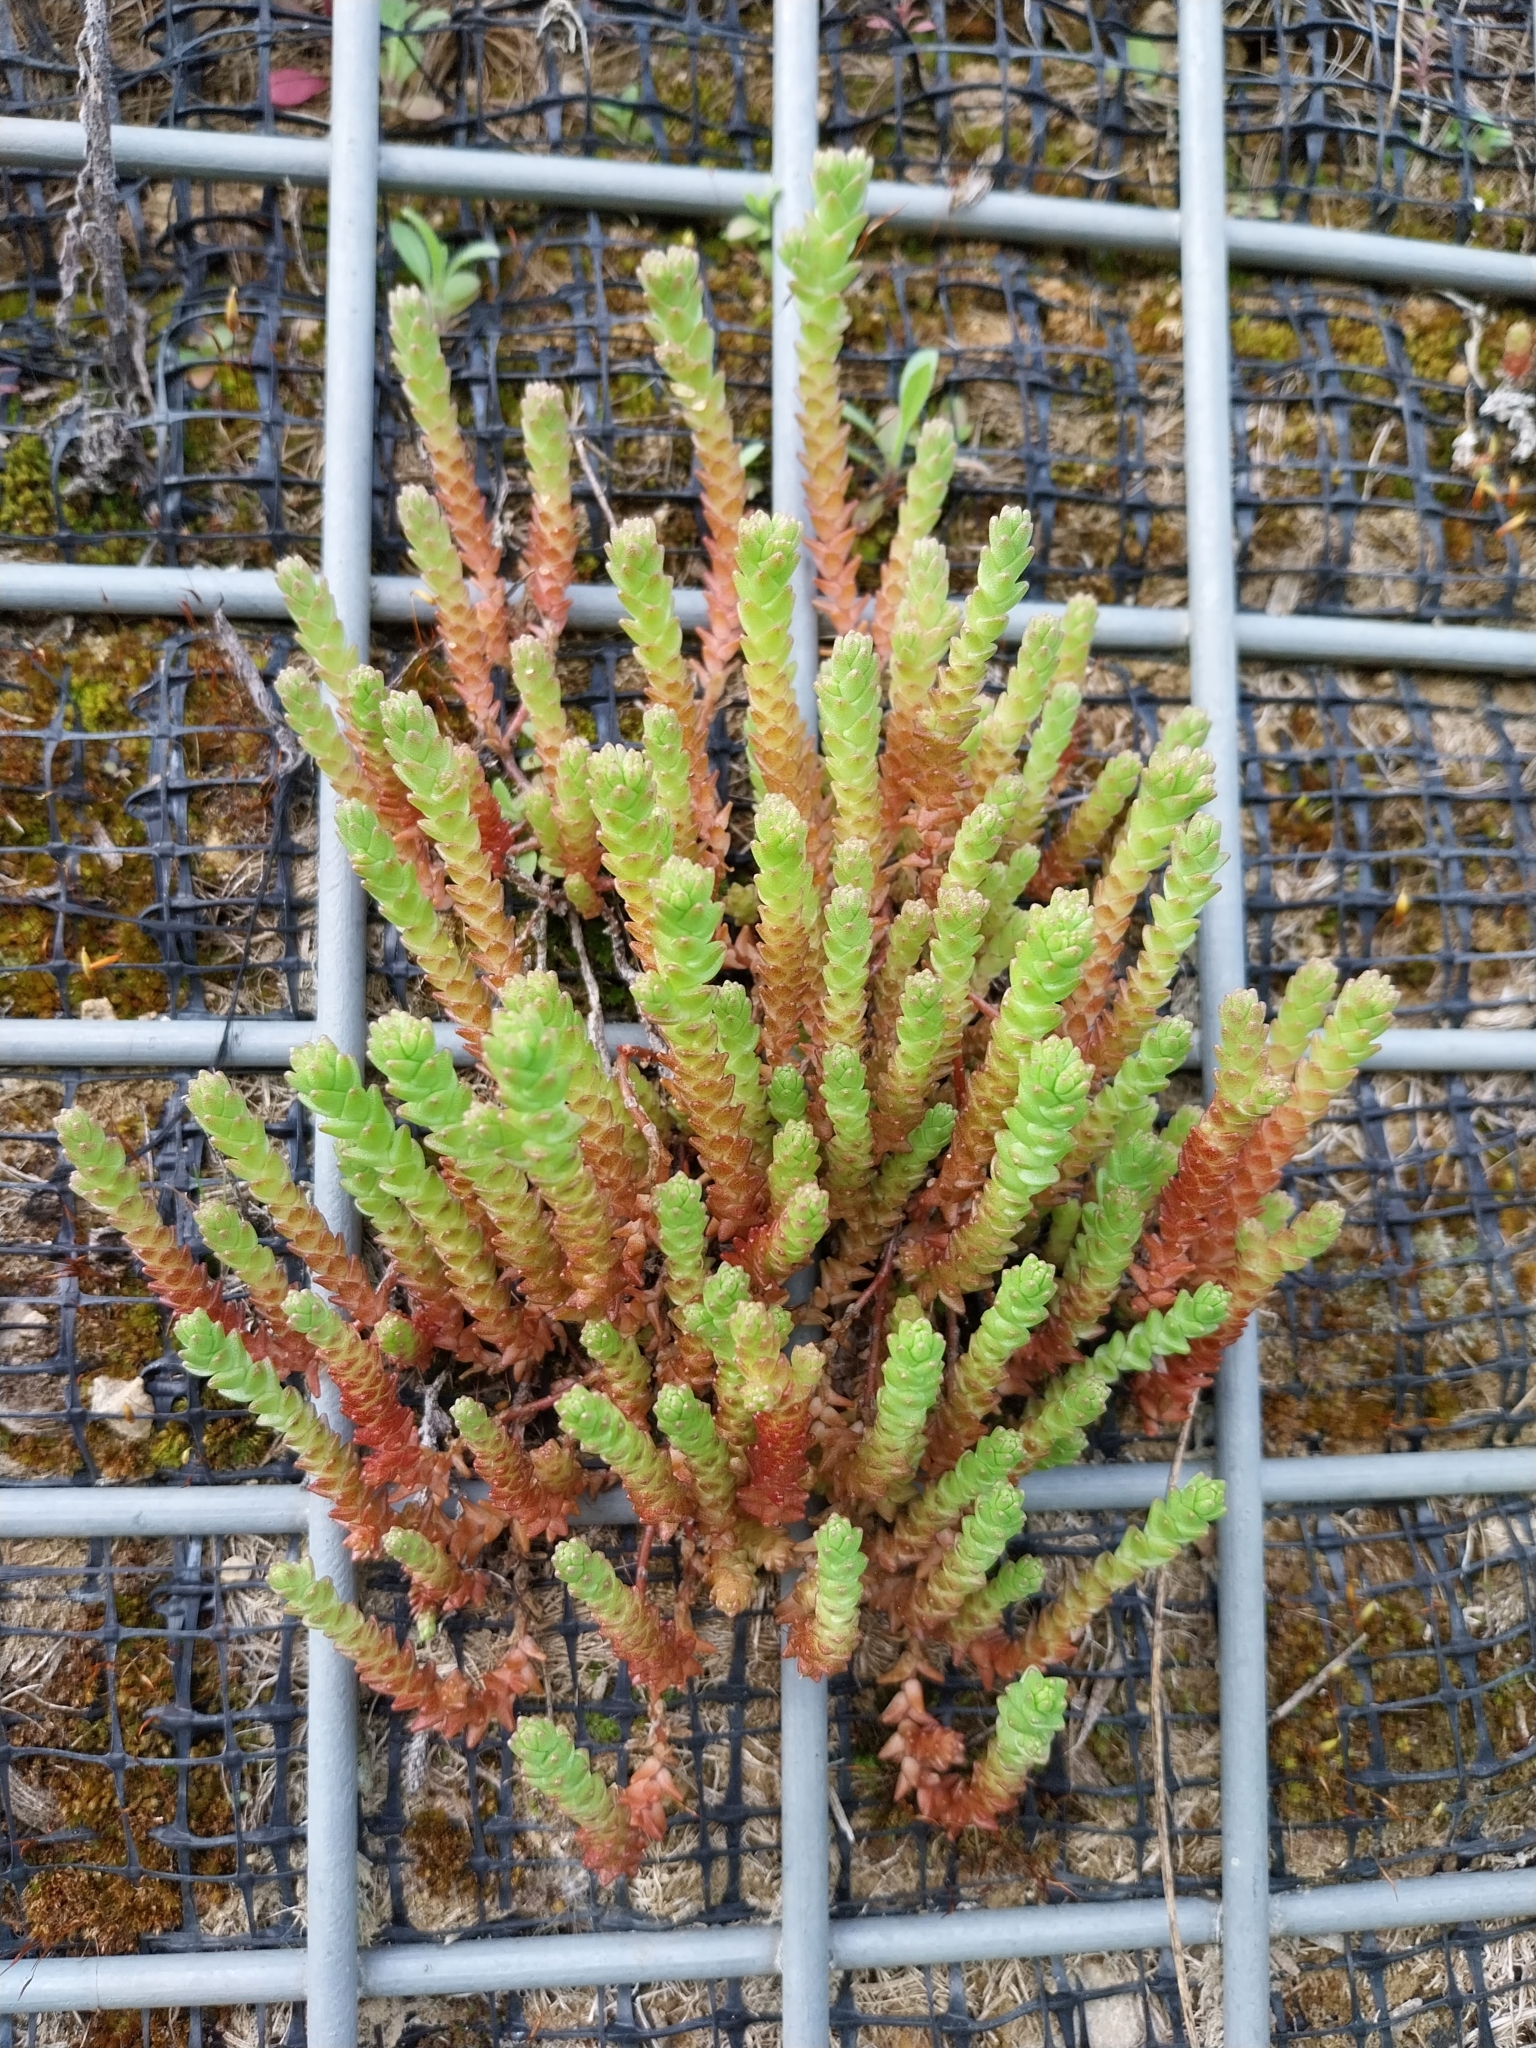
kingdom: Plantae
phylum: Tracheophyta
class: Magnoliopsida
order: Saxifragales
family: Crassulaceae
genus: Sedum
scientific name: Sedum acre
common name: Biting stonecrop
